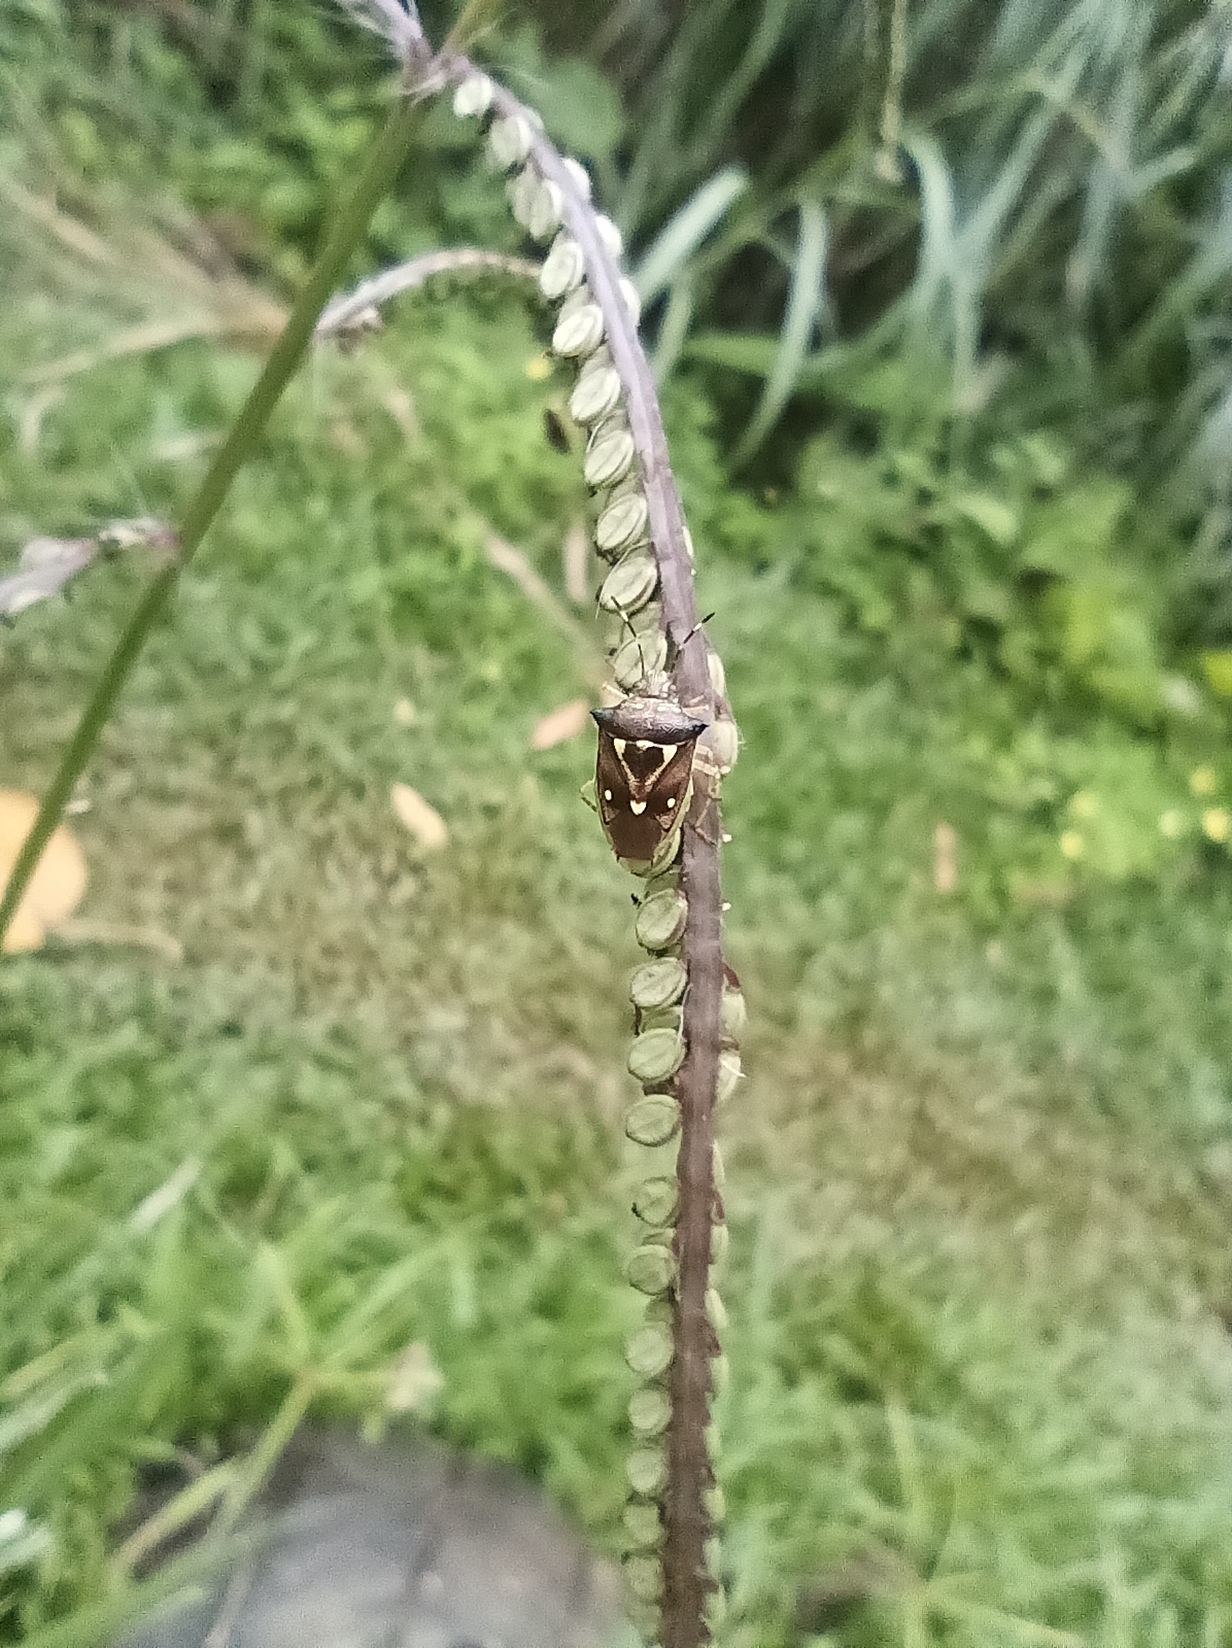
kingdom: Animalia
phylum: Arthropoda
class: Insecta
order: Hemiptera
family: Pentatomidae
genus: Mormidea
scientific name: Mormidea ypsilon
